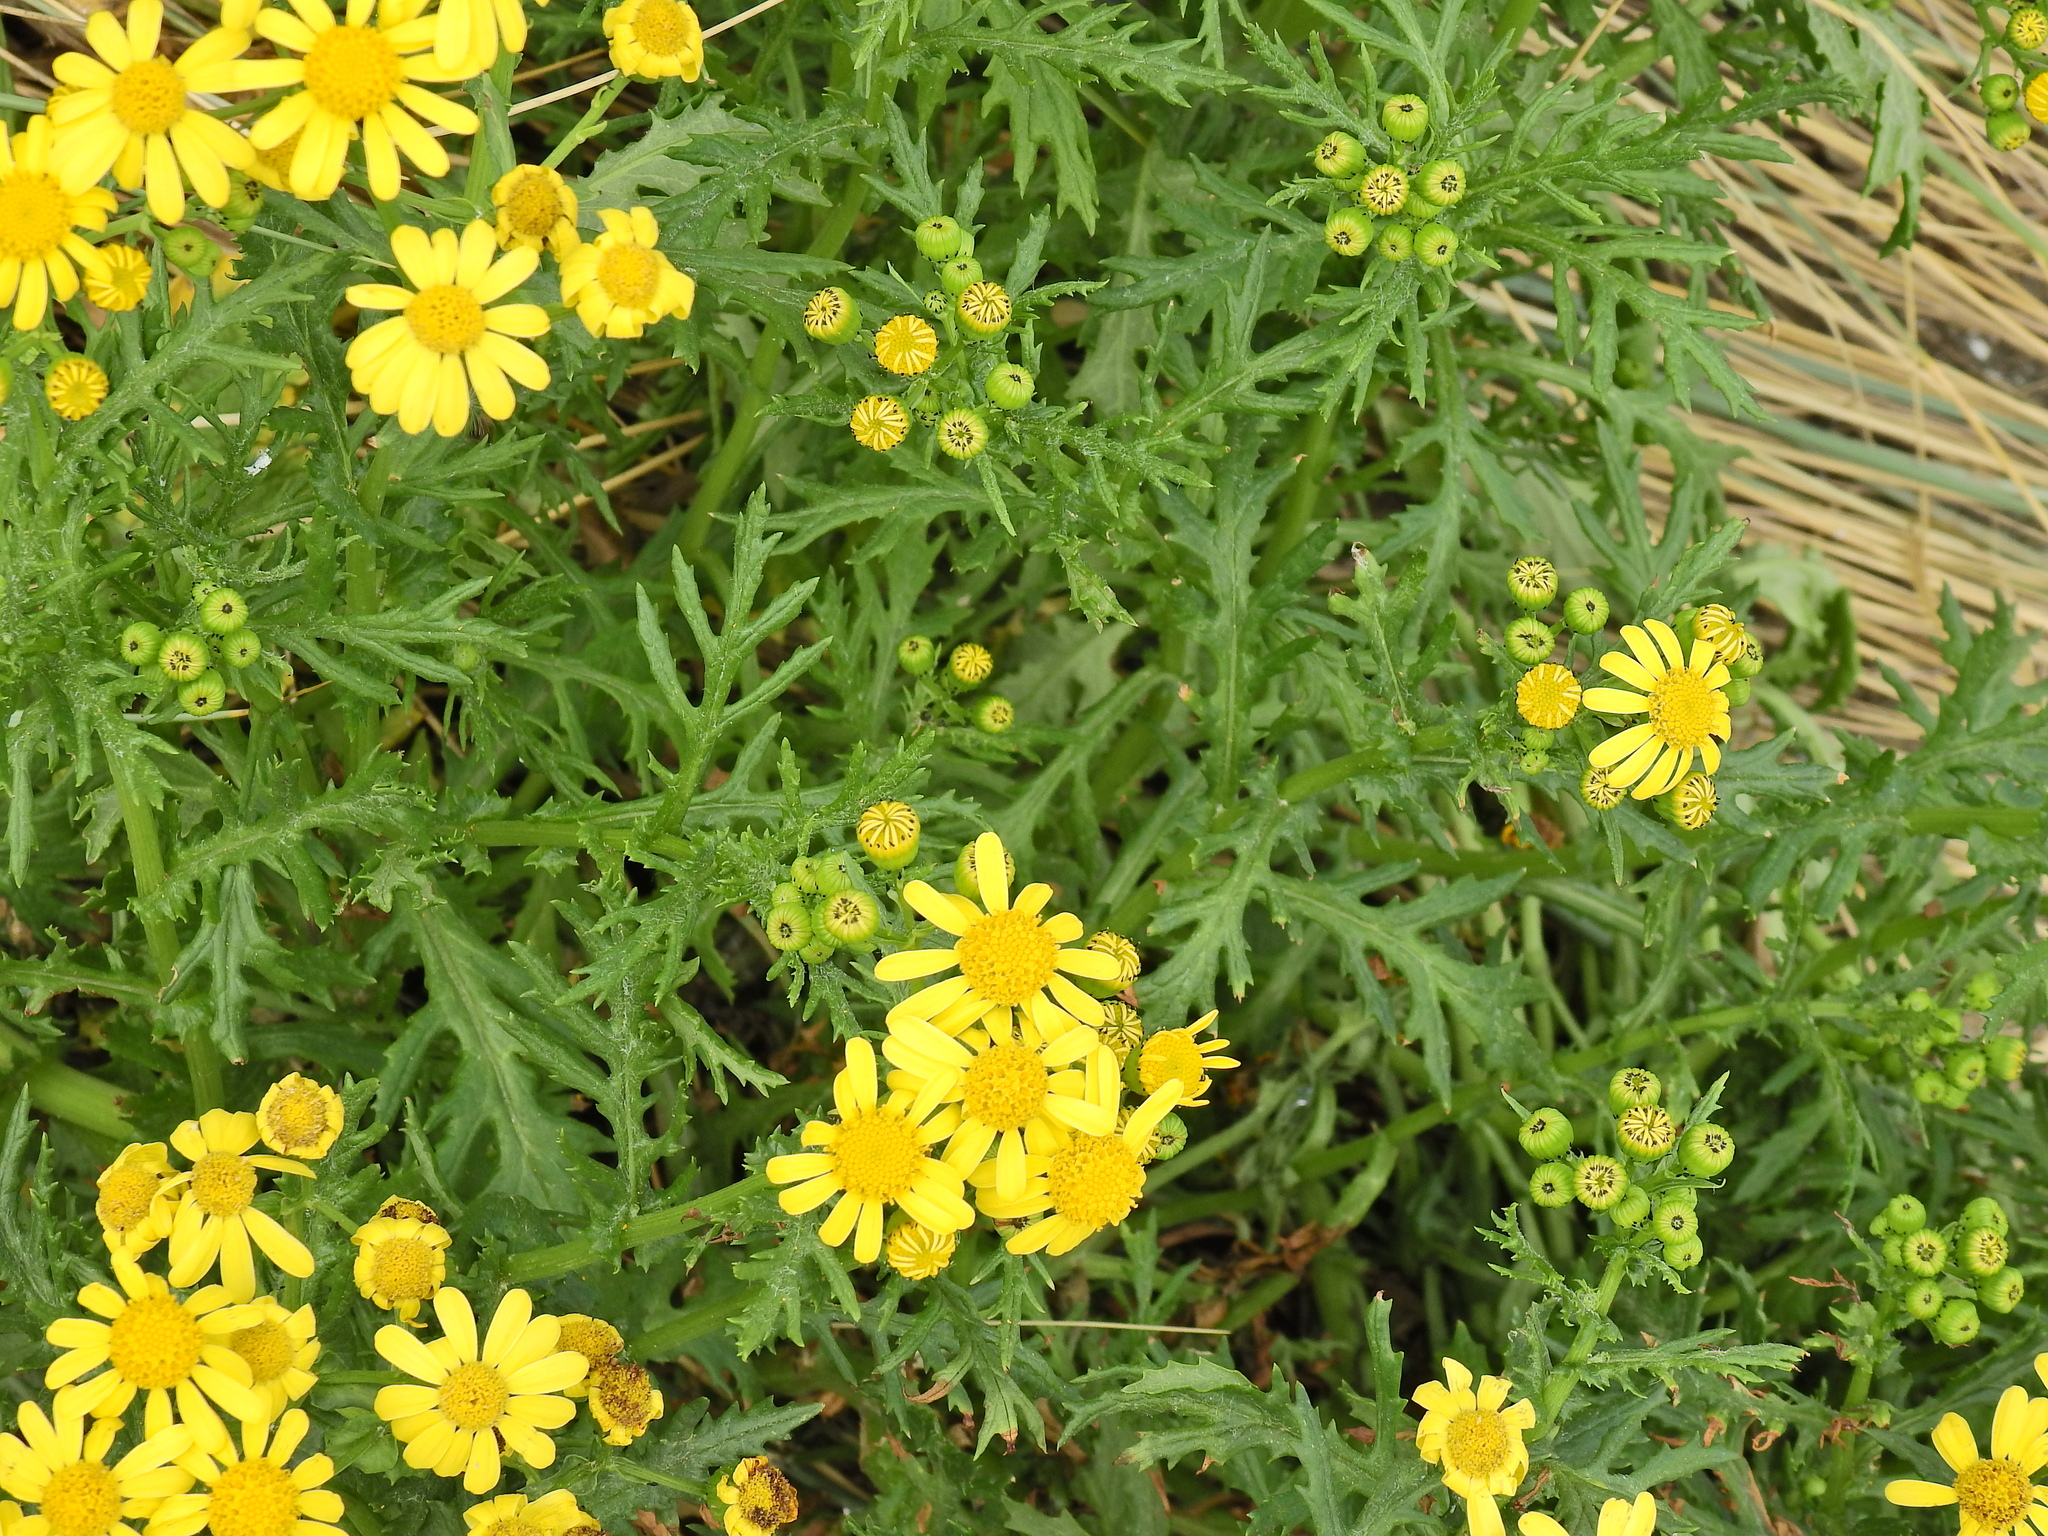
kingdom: Plantae
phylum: Tracheophyta
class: Magnoliopsida
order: Asterales
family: Asteraceae
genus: Senecio
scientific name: Senecio squalidus
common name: Oxford ragwort
